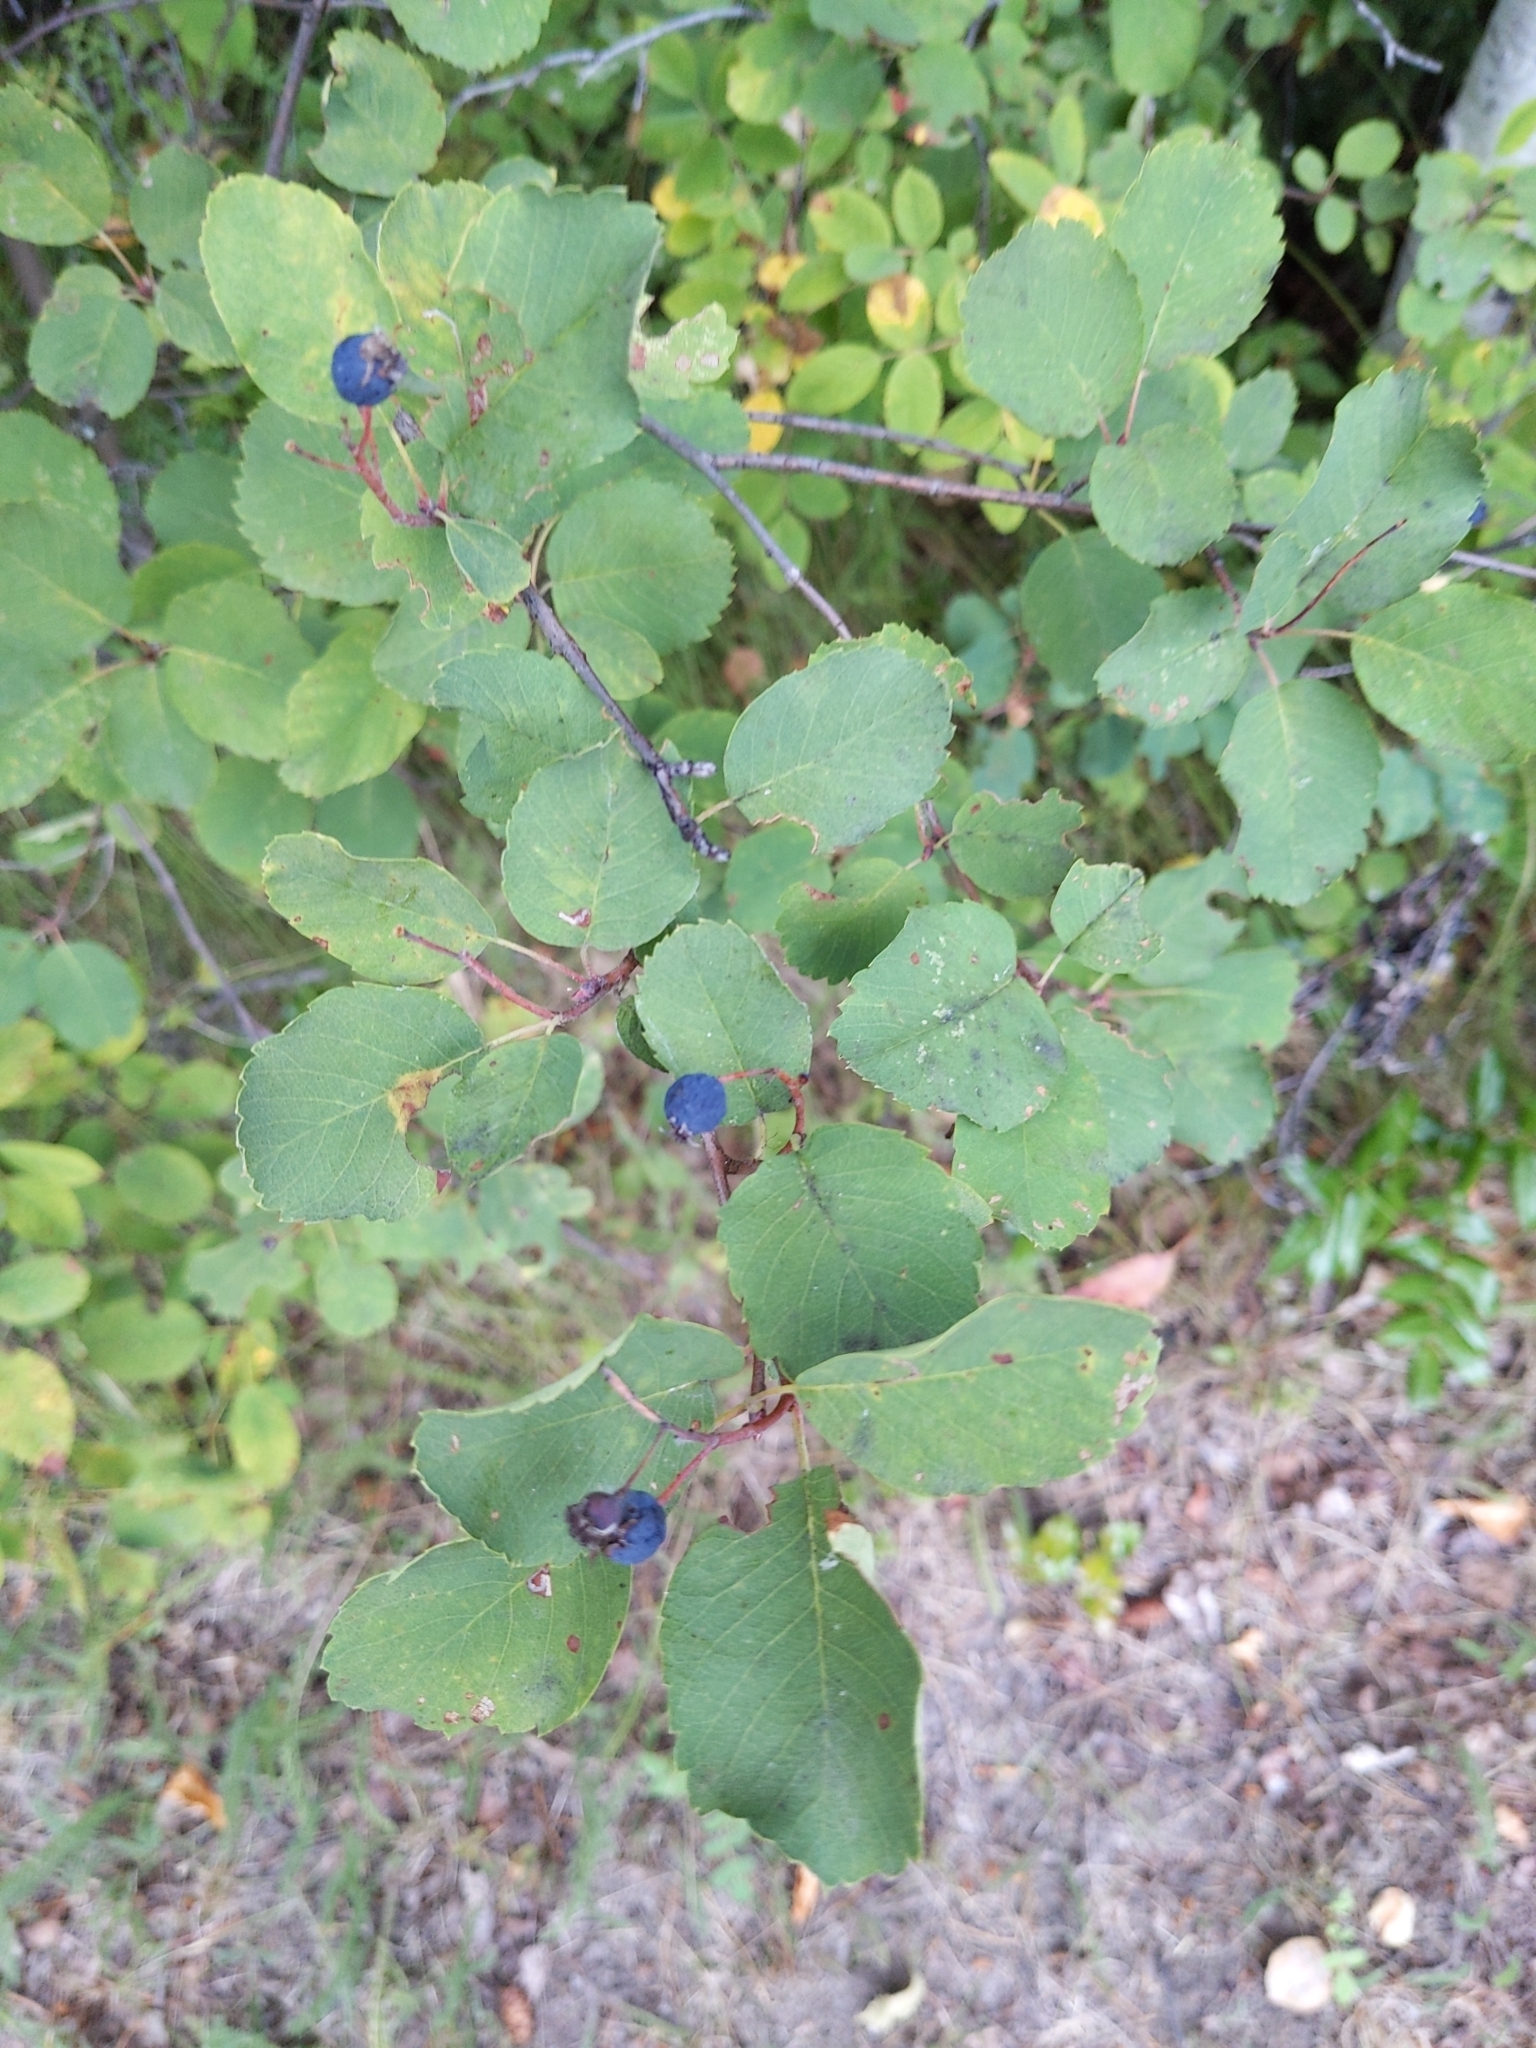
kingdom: Plantae
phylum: Tracheophyta
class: Magnoliopsida
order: Rosales
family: Rosaceae
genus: Amelanchier
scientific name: Amelanchier alnifolia
